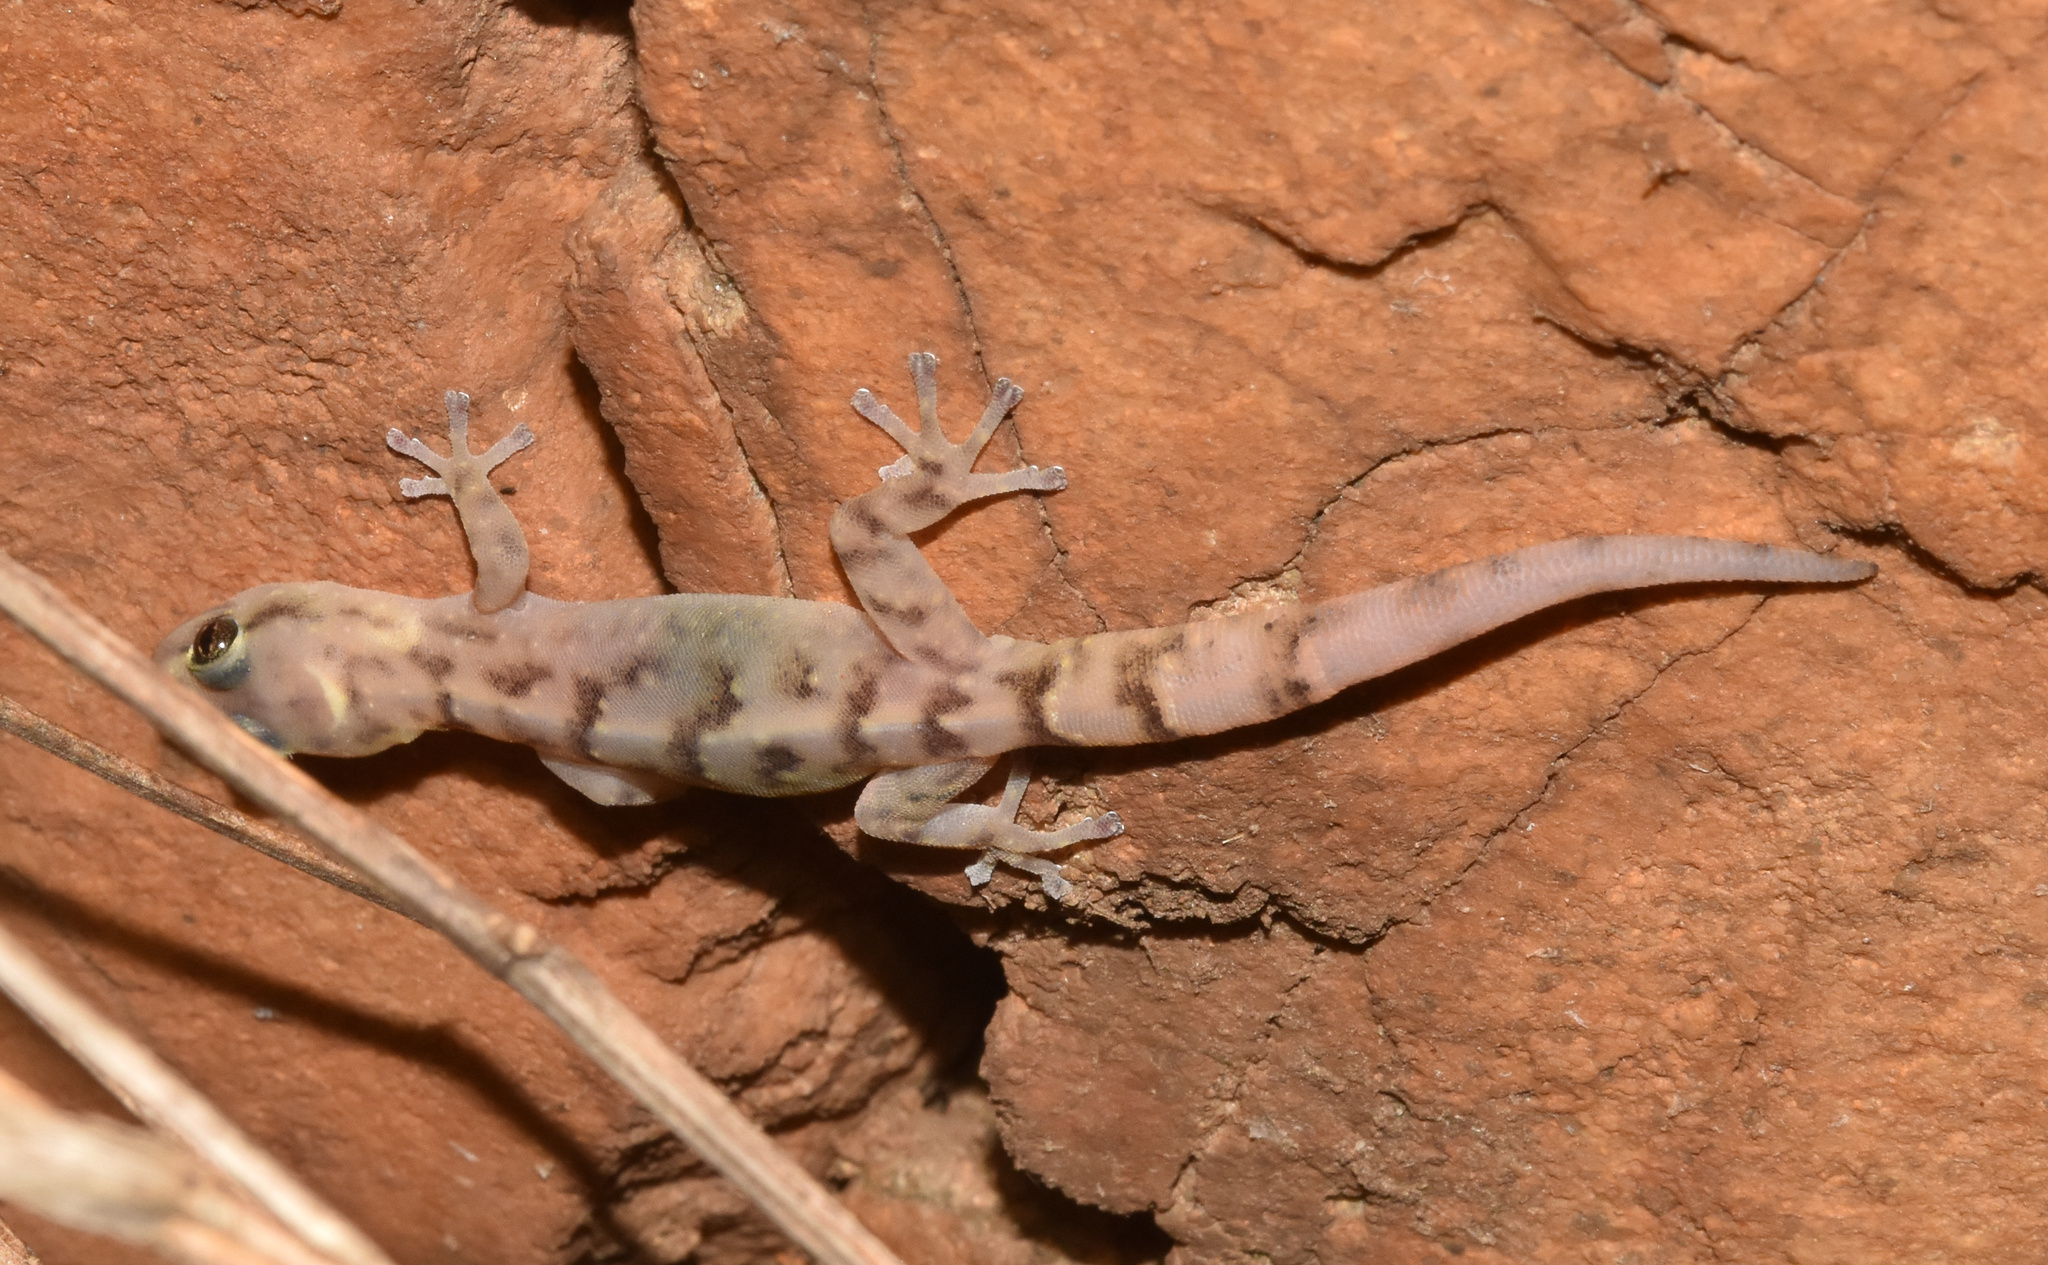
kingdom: Animalia
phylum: Chordata
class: Squamata
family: Gekkonidae
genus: Afroedura
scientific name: Afroedura pongola
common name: Pongola rock gecko
